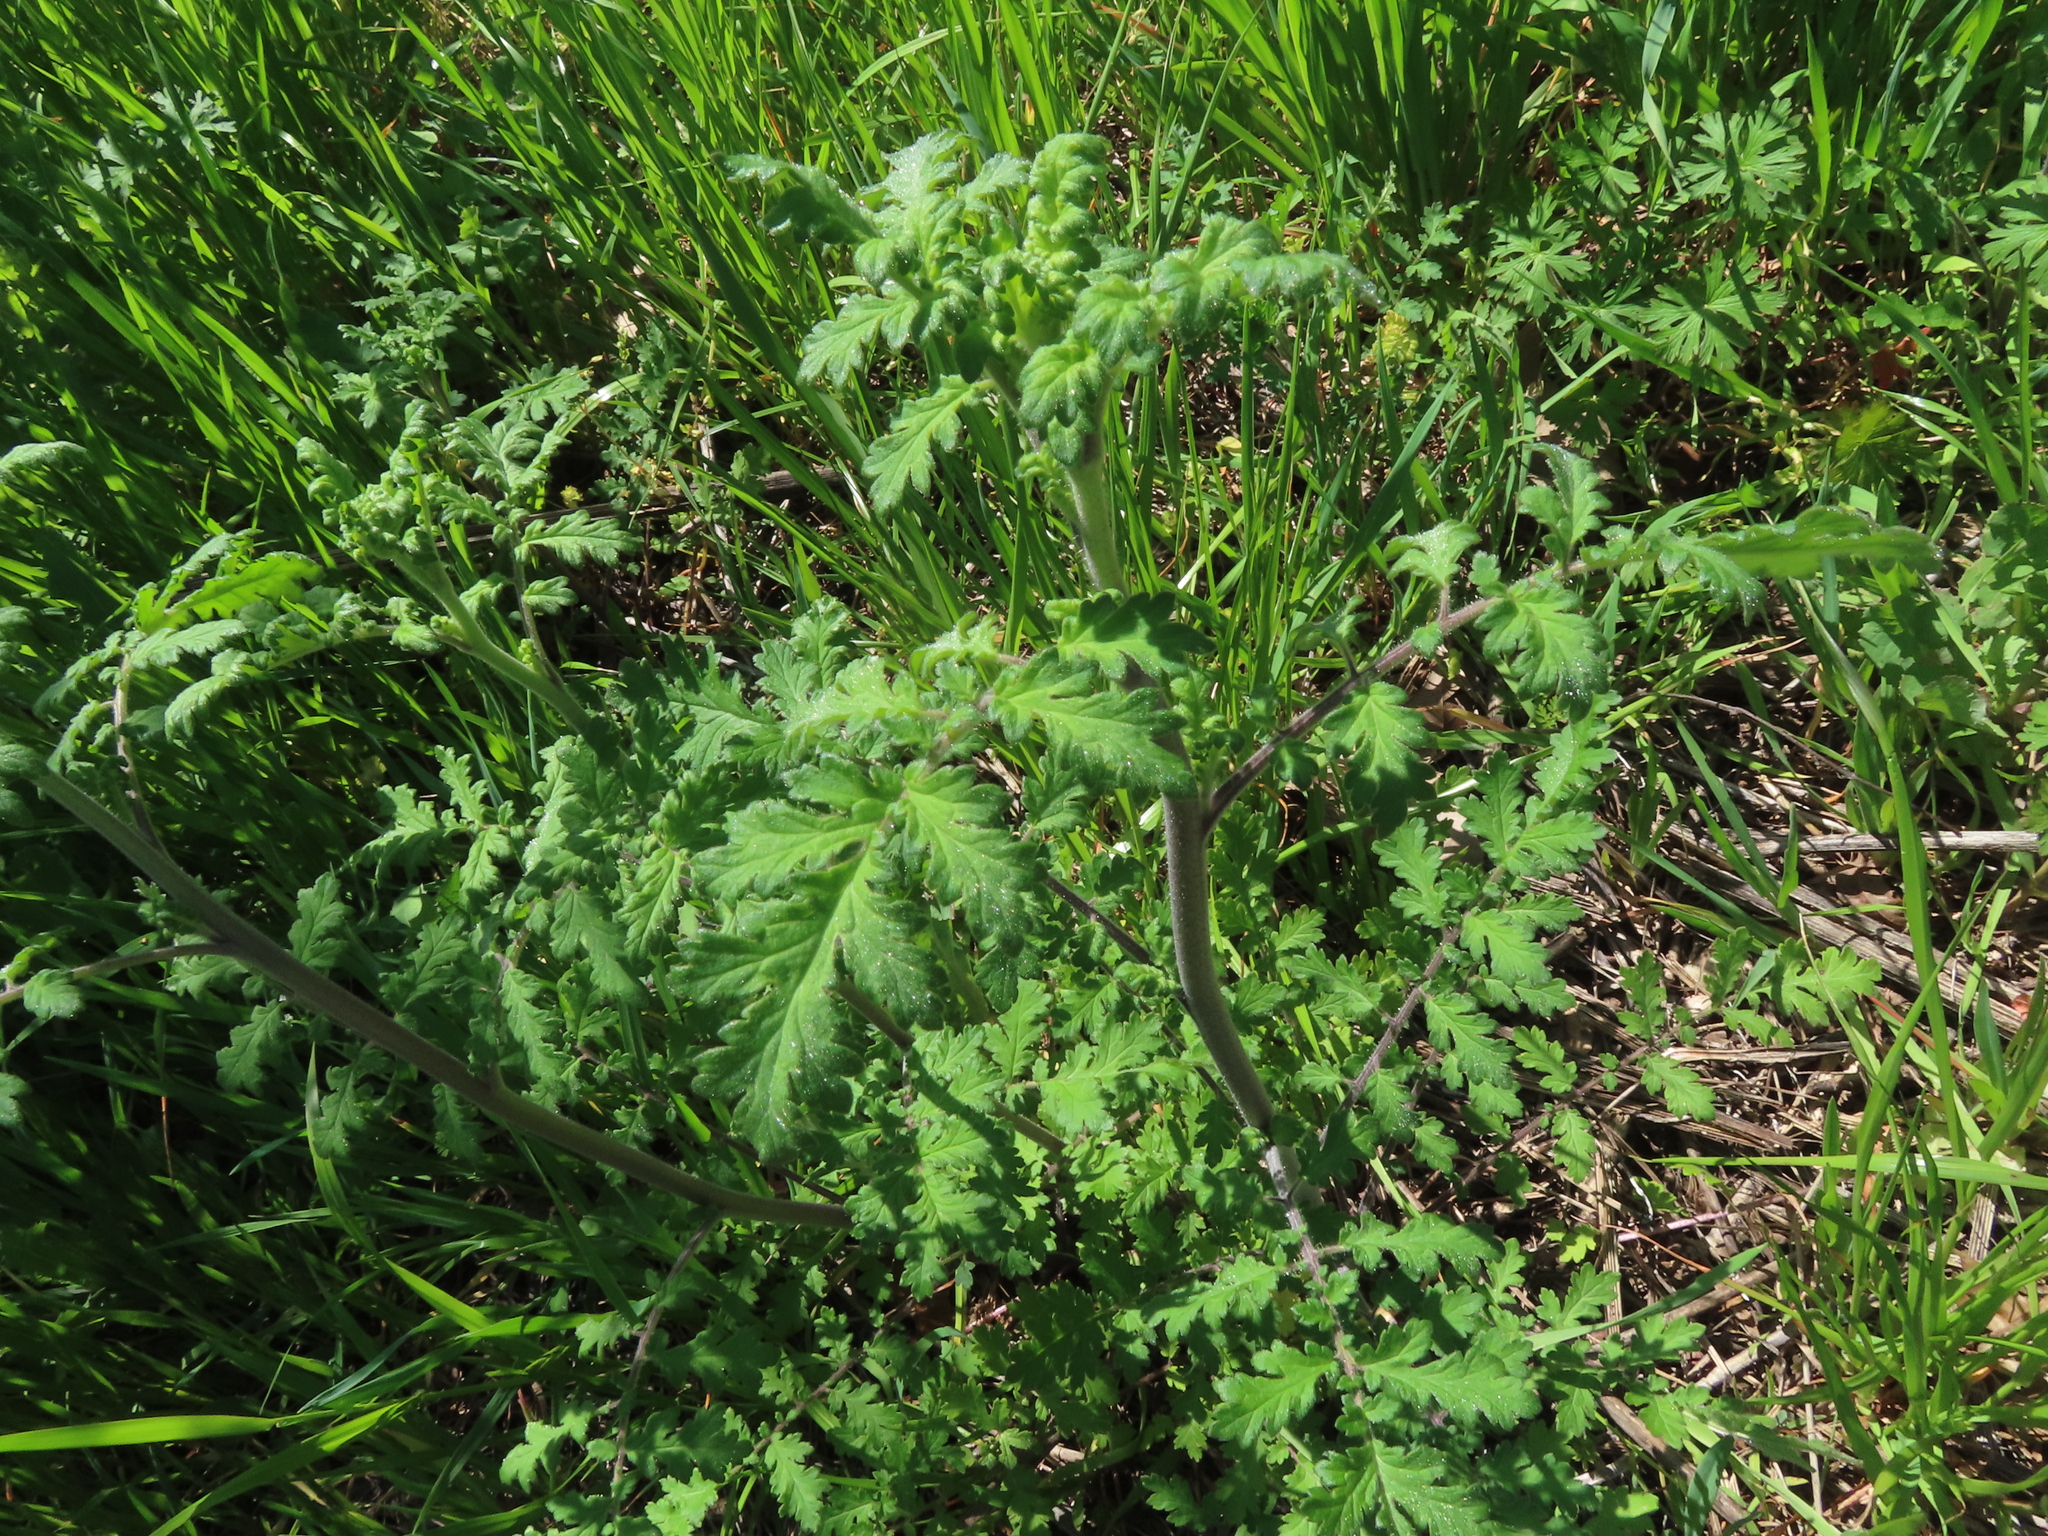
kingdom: Plantae
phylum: Tracheophyta
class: Magnoliopsida
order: Boraginales
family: Hydrophyllaceae
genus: Phacelia
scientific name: Phacelia congesta
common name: Blue curls
